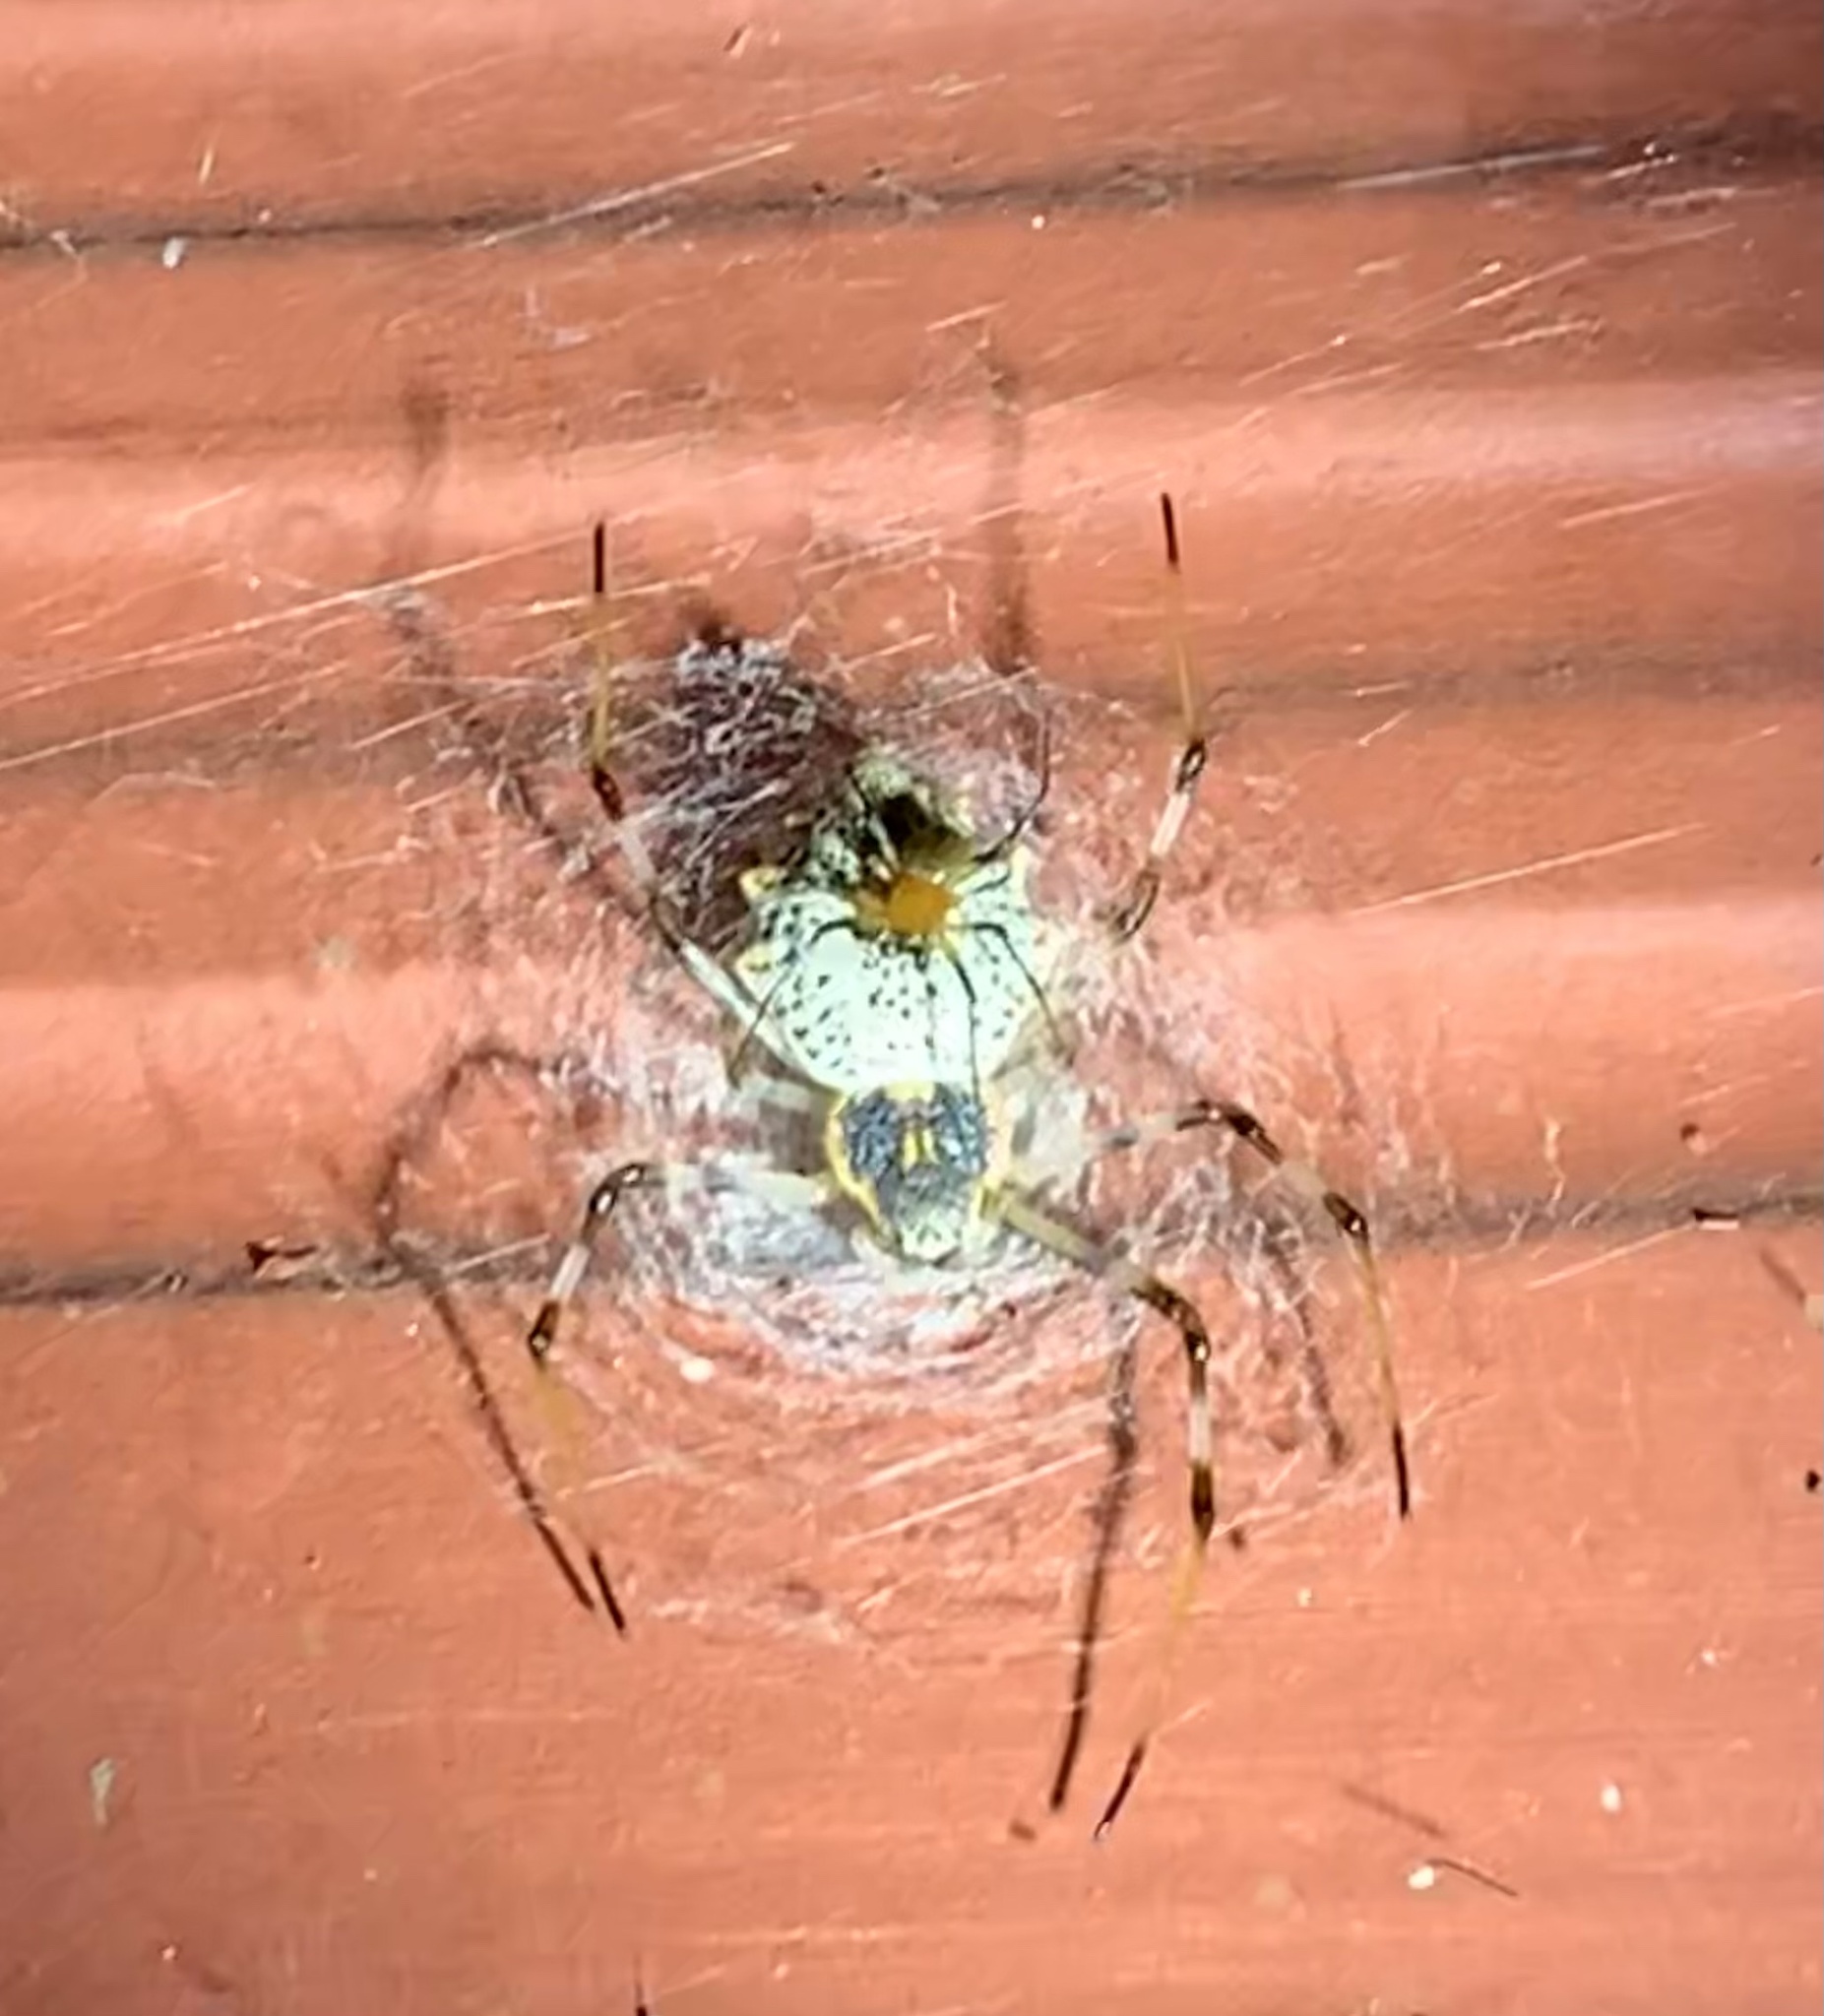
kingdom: Animalia
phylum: Arthropoda
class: Arachnida
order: Araneae
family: Araneidae
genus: Herennia
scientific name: Herennia multipuncta
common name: Spotted coin spider
